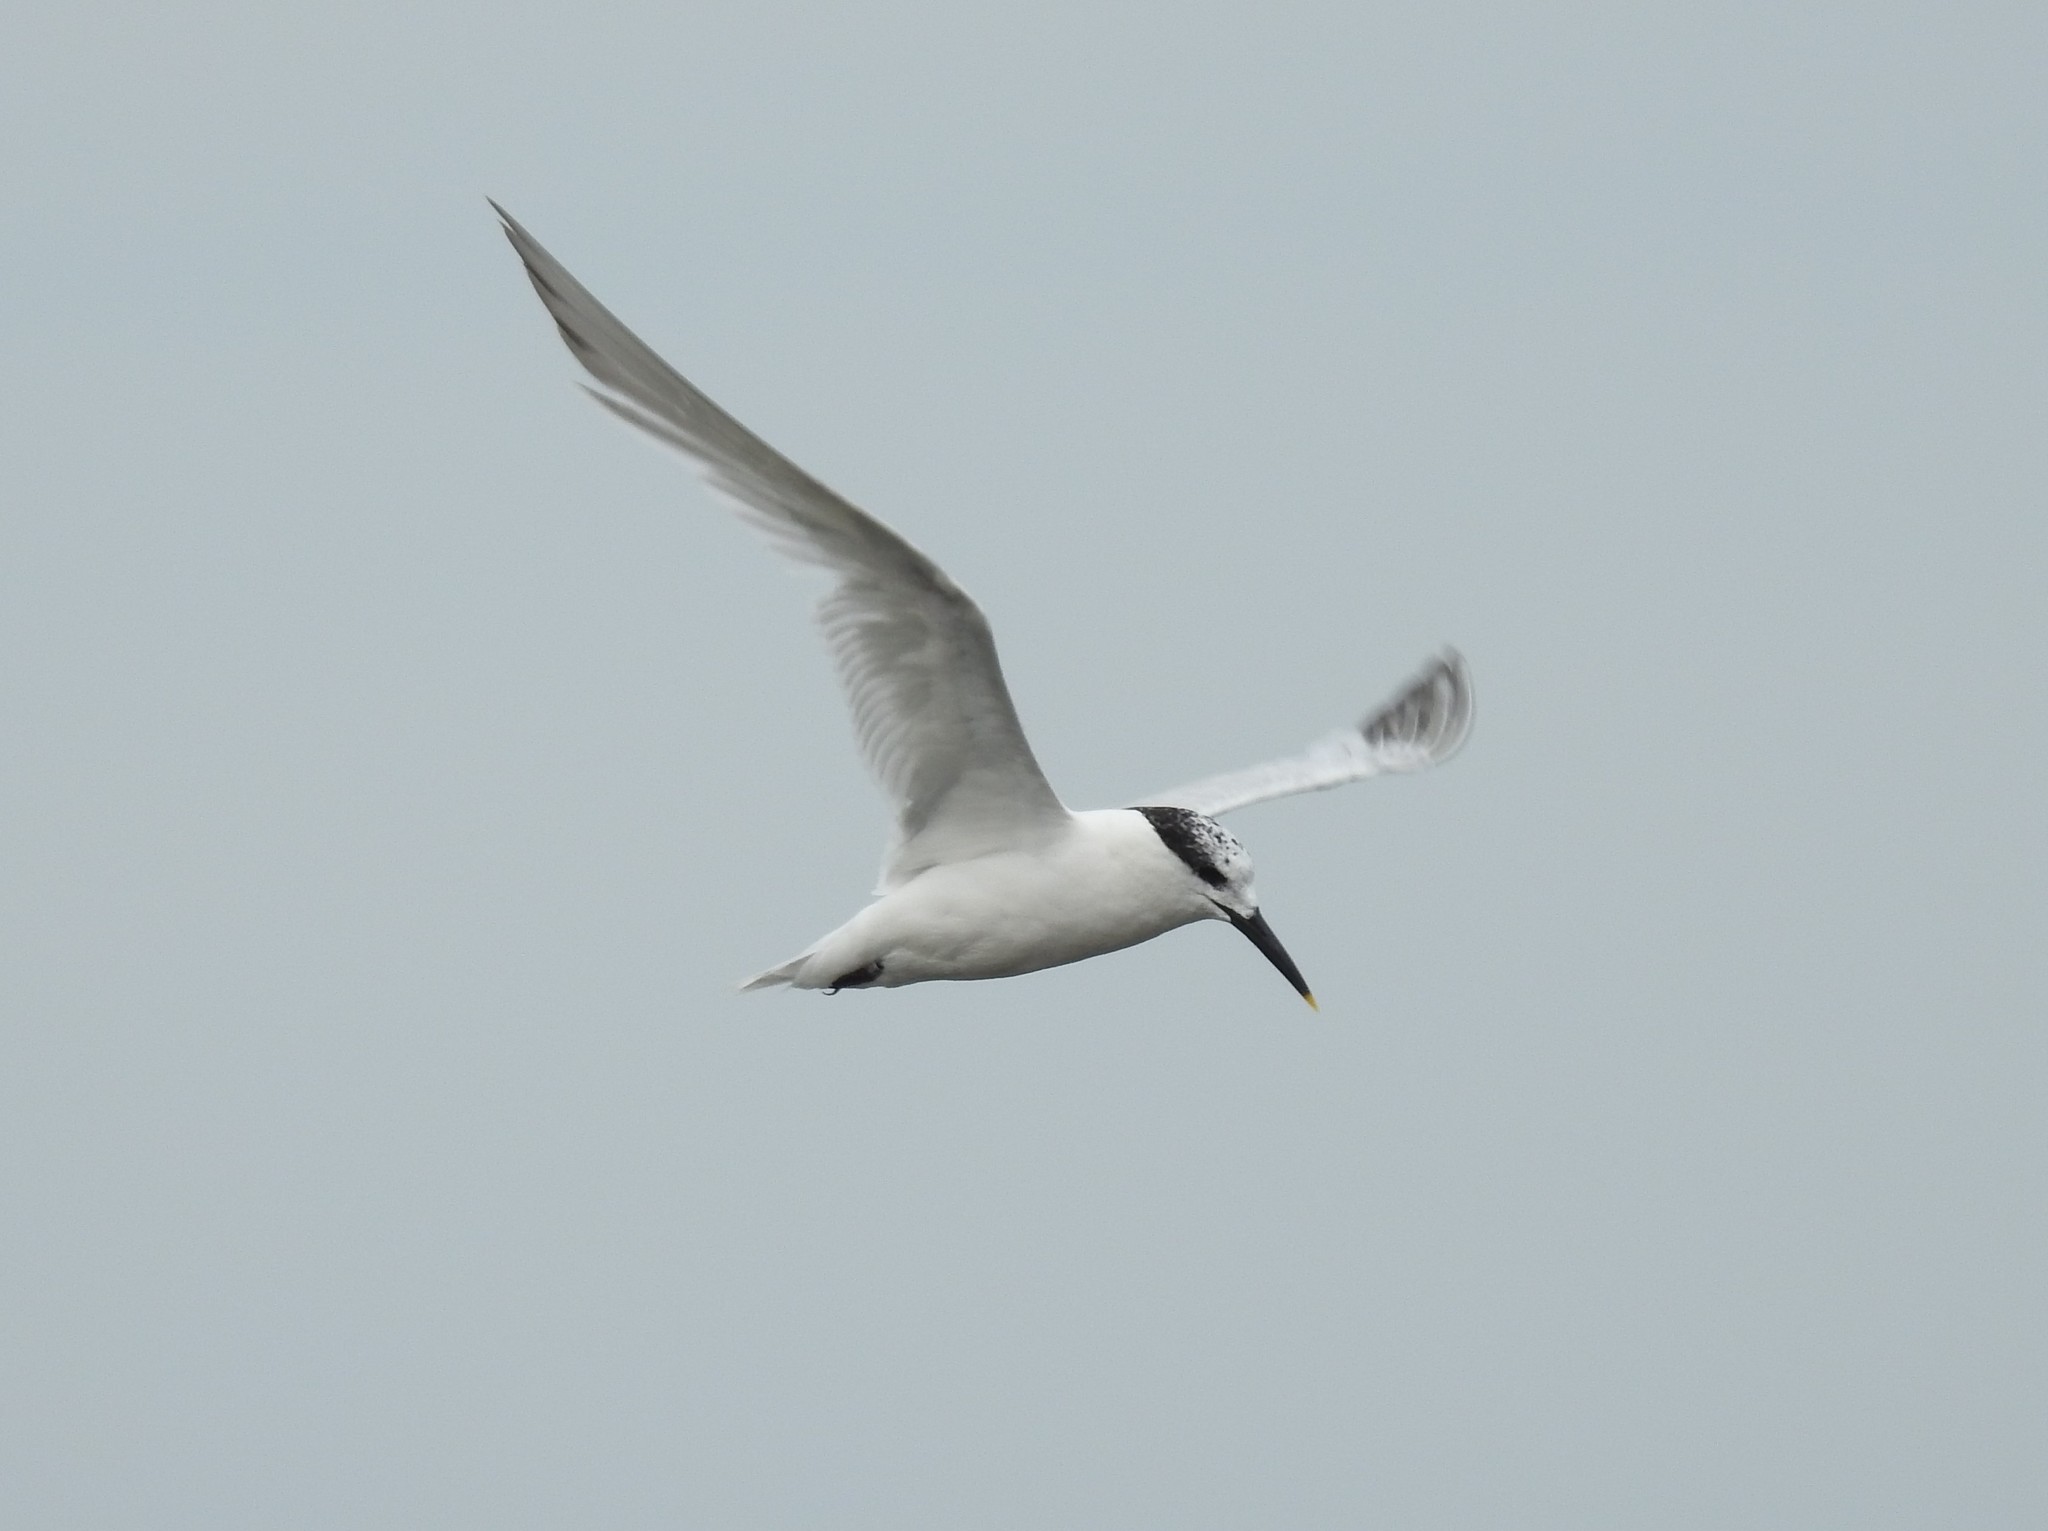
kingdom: Animalia
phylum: Chordata
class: Aves
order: Charadriiformes
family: Laridae
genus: Thalasseus
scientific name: Thalasseus sandvicensis
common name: Sandwich tern
